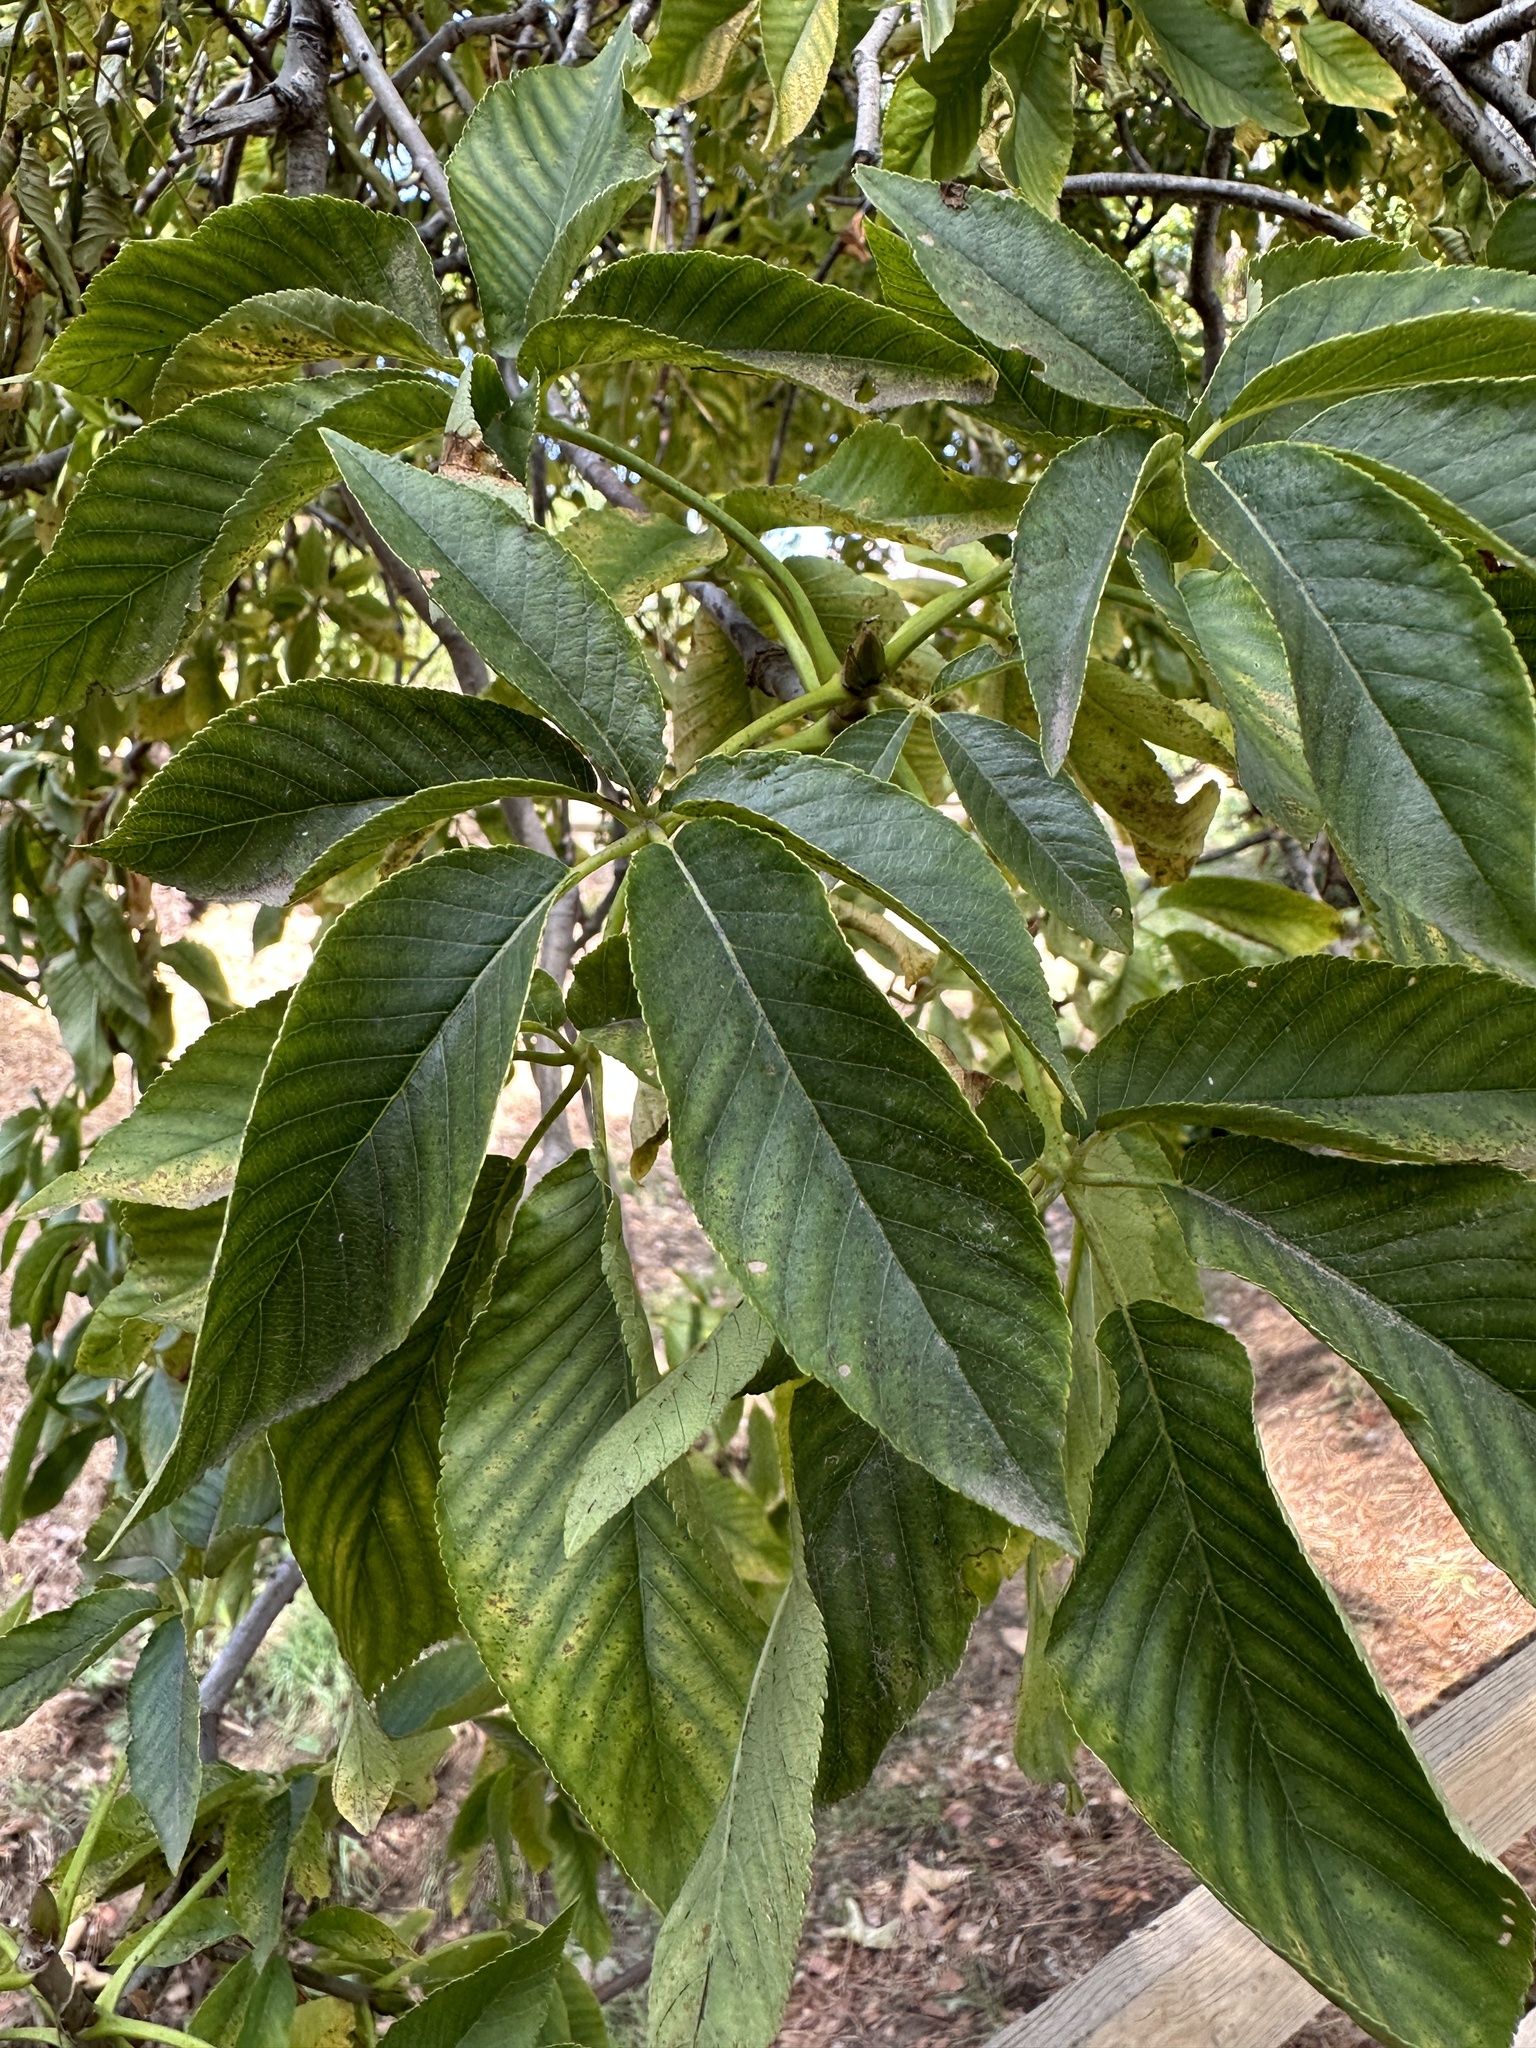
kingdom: Plantae
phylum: Tracheophyta
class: Magnoliopsida
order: Sapindales
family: Sapindaceae
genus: Aesculus
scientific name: Aesculus californica
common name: California buckeye
